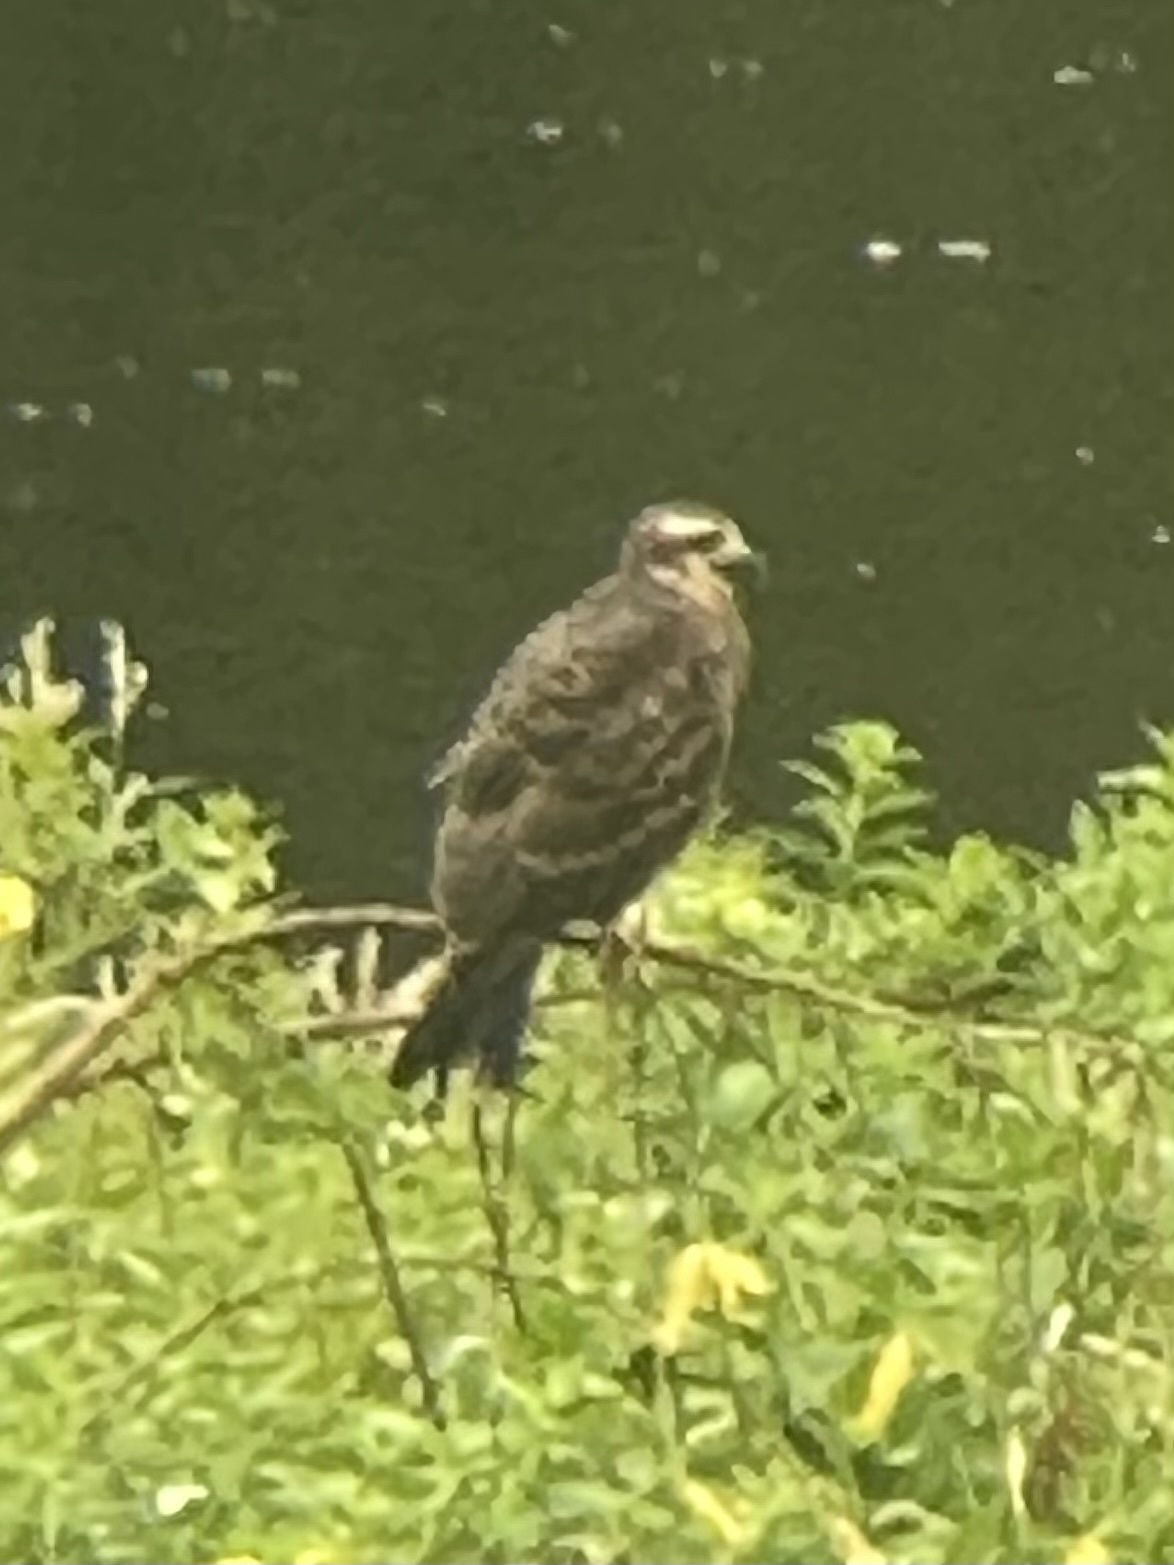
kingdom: Animalia
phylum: Chordata
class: Aves
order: Accipitriformes
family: Accipitridae
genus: Rostrhamus
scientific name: Rostrhamus sociabilis
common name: Snail kite
